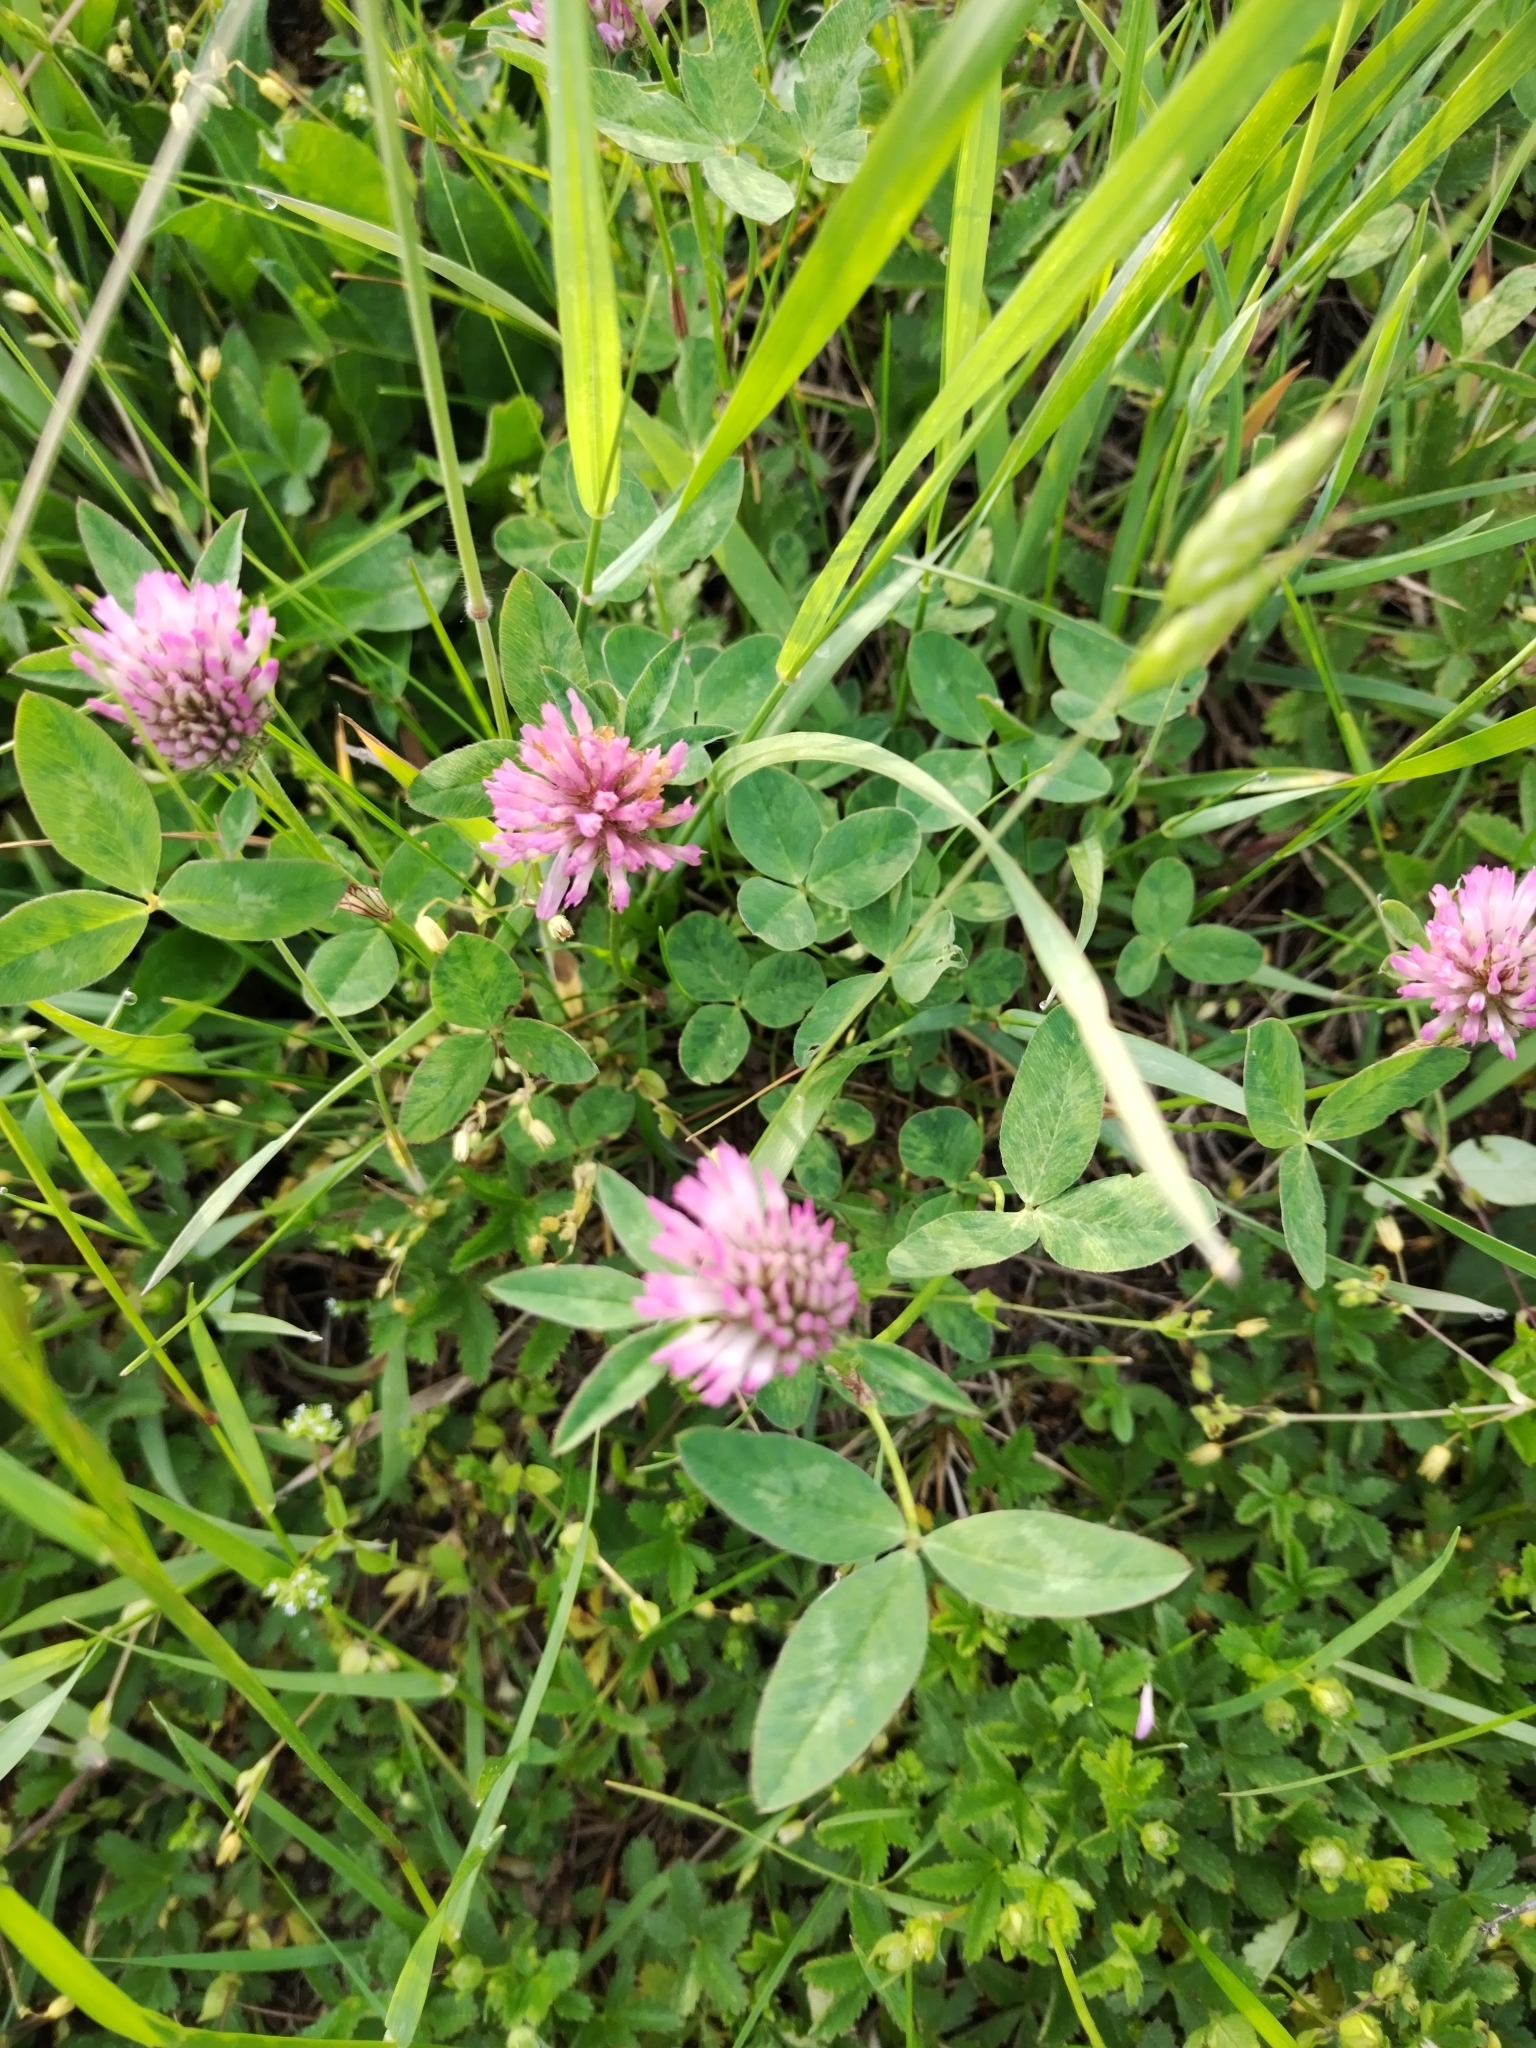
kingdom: Plantae
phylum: Tracheophyta
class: Magnoliopsida
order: Fabales
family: Fabaceae
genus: Trifolium
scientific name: Trifolium pratense
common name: Red clover
